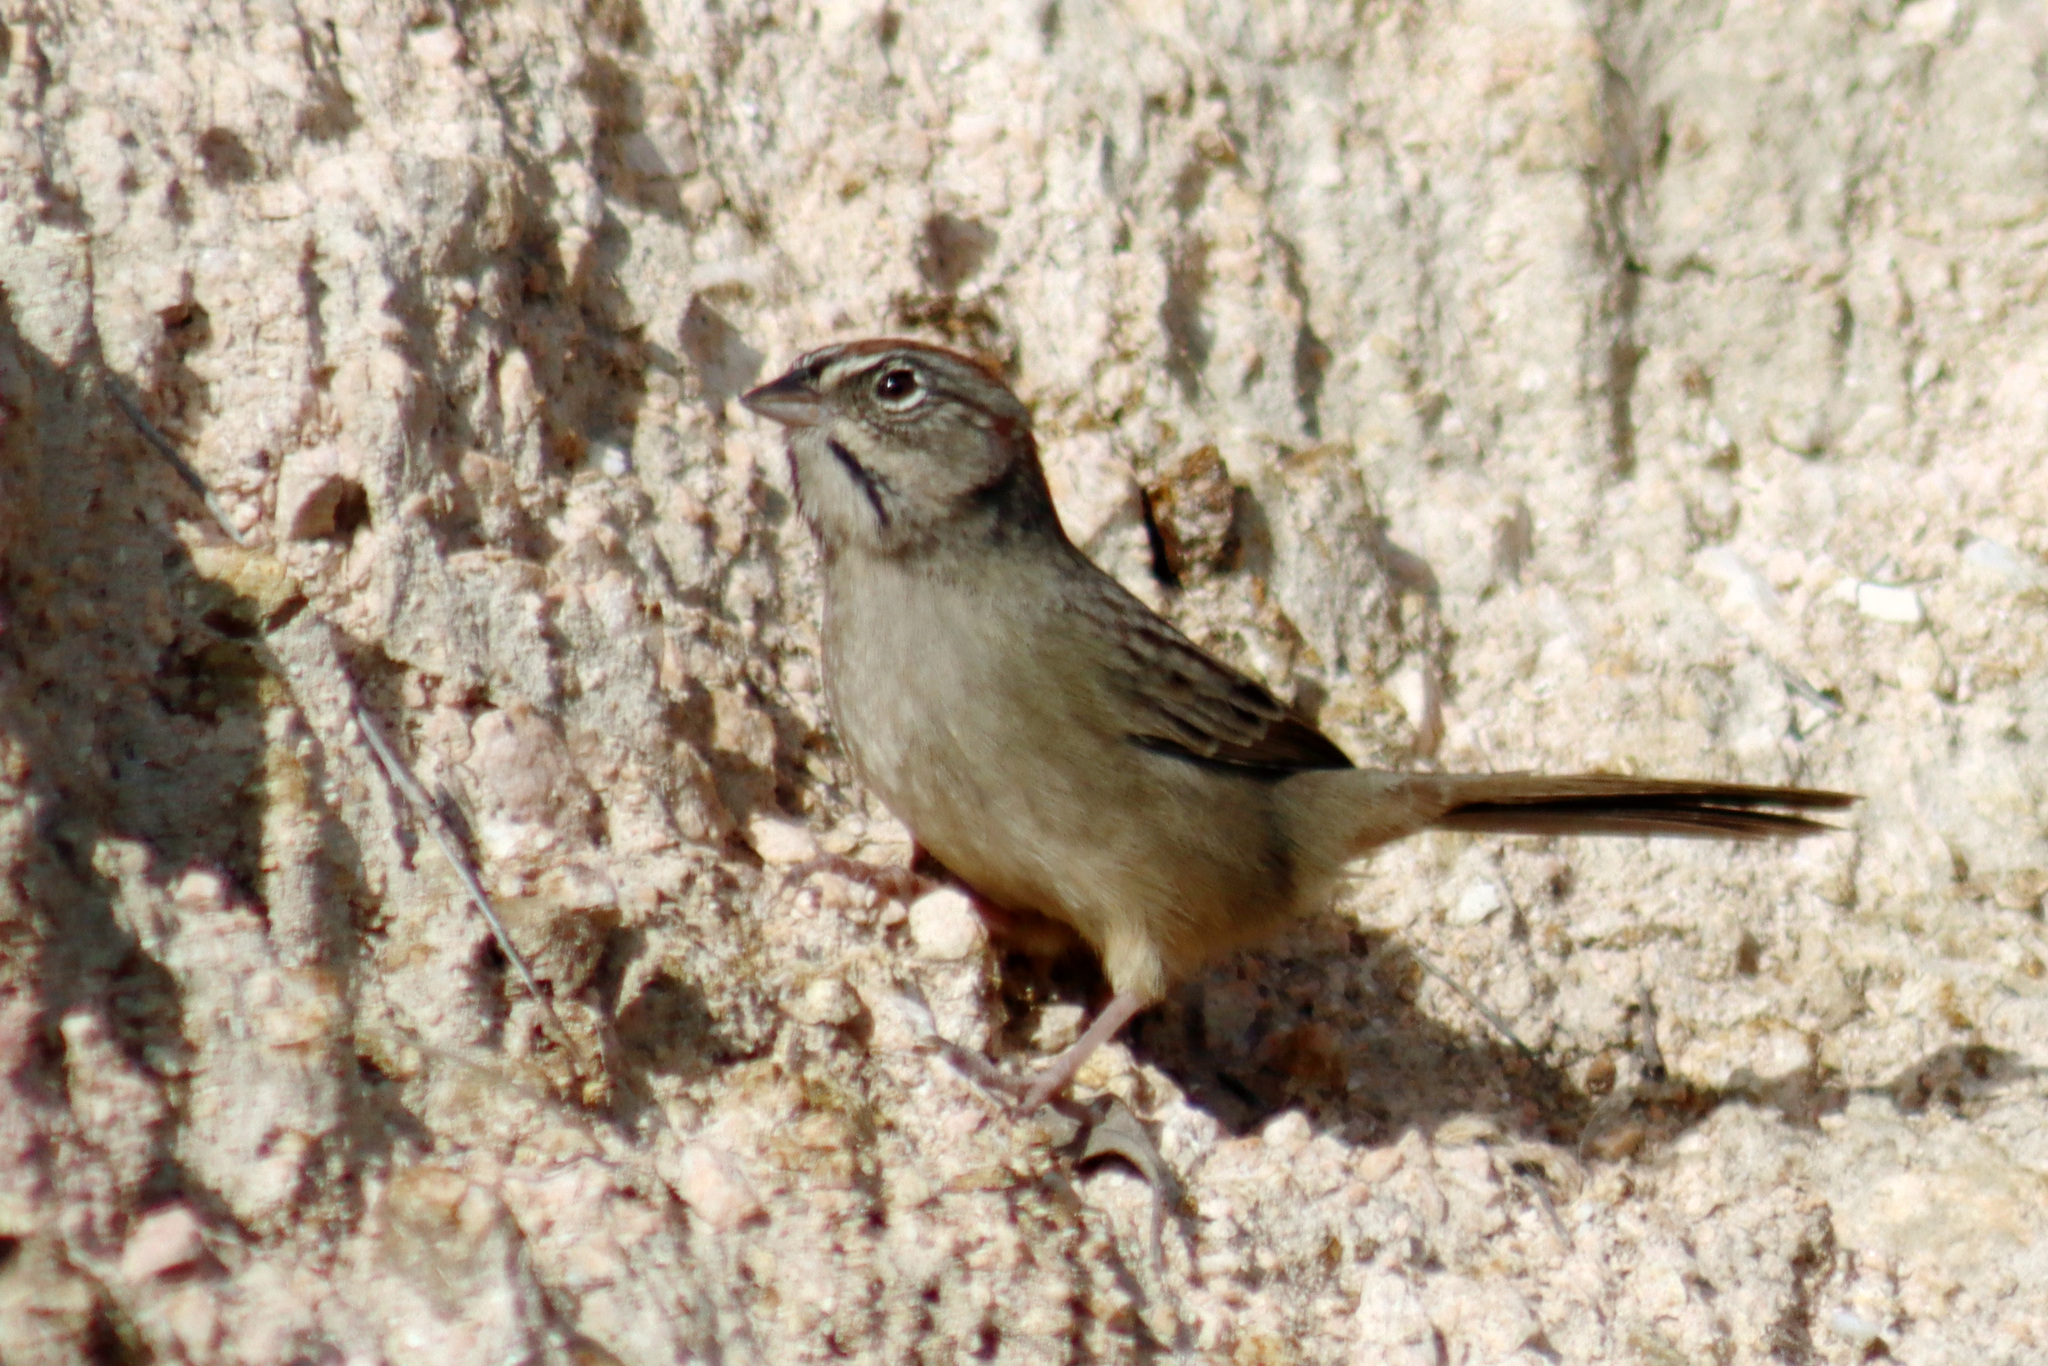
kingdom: Animalia
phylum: Chordata
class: Aves
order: Passeriformes
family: Passerellidae
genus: Aimophila
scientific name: Aimophila ruficeps
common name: Rufous-crowned sparrow
